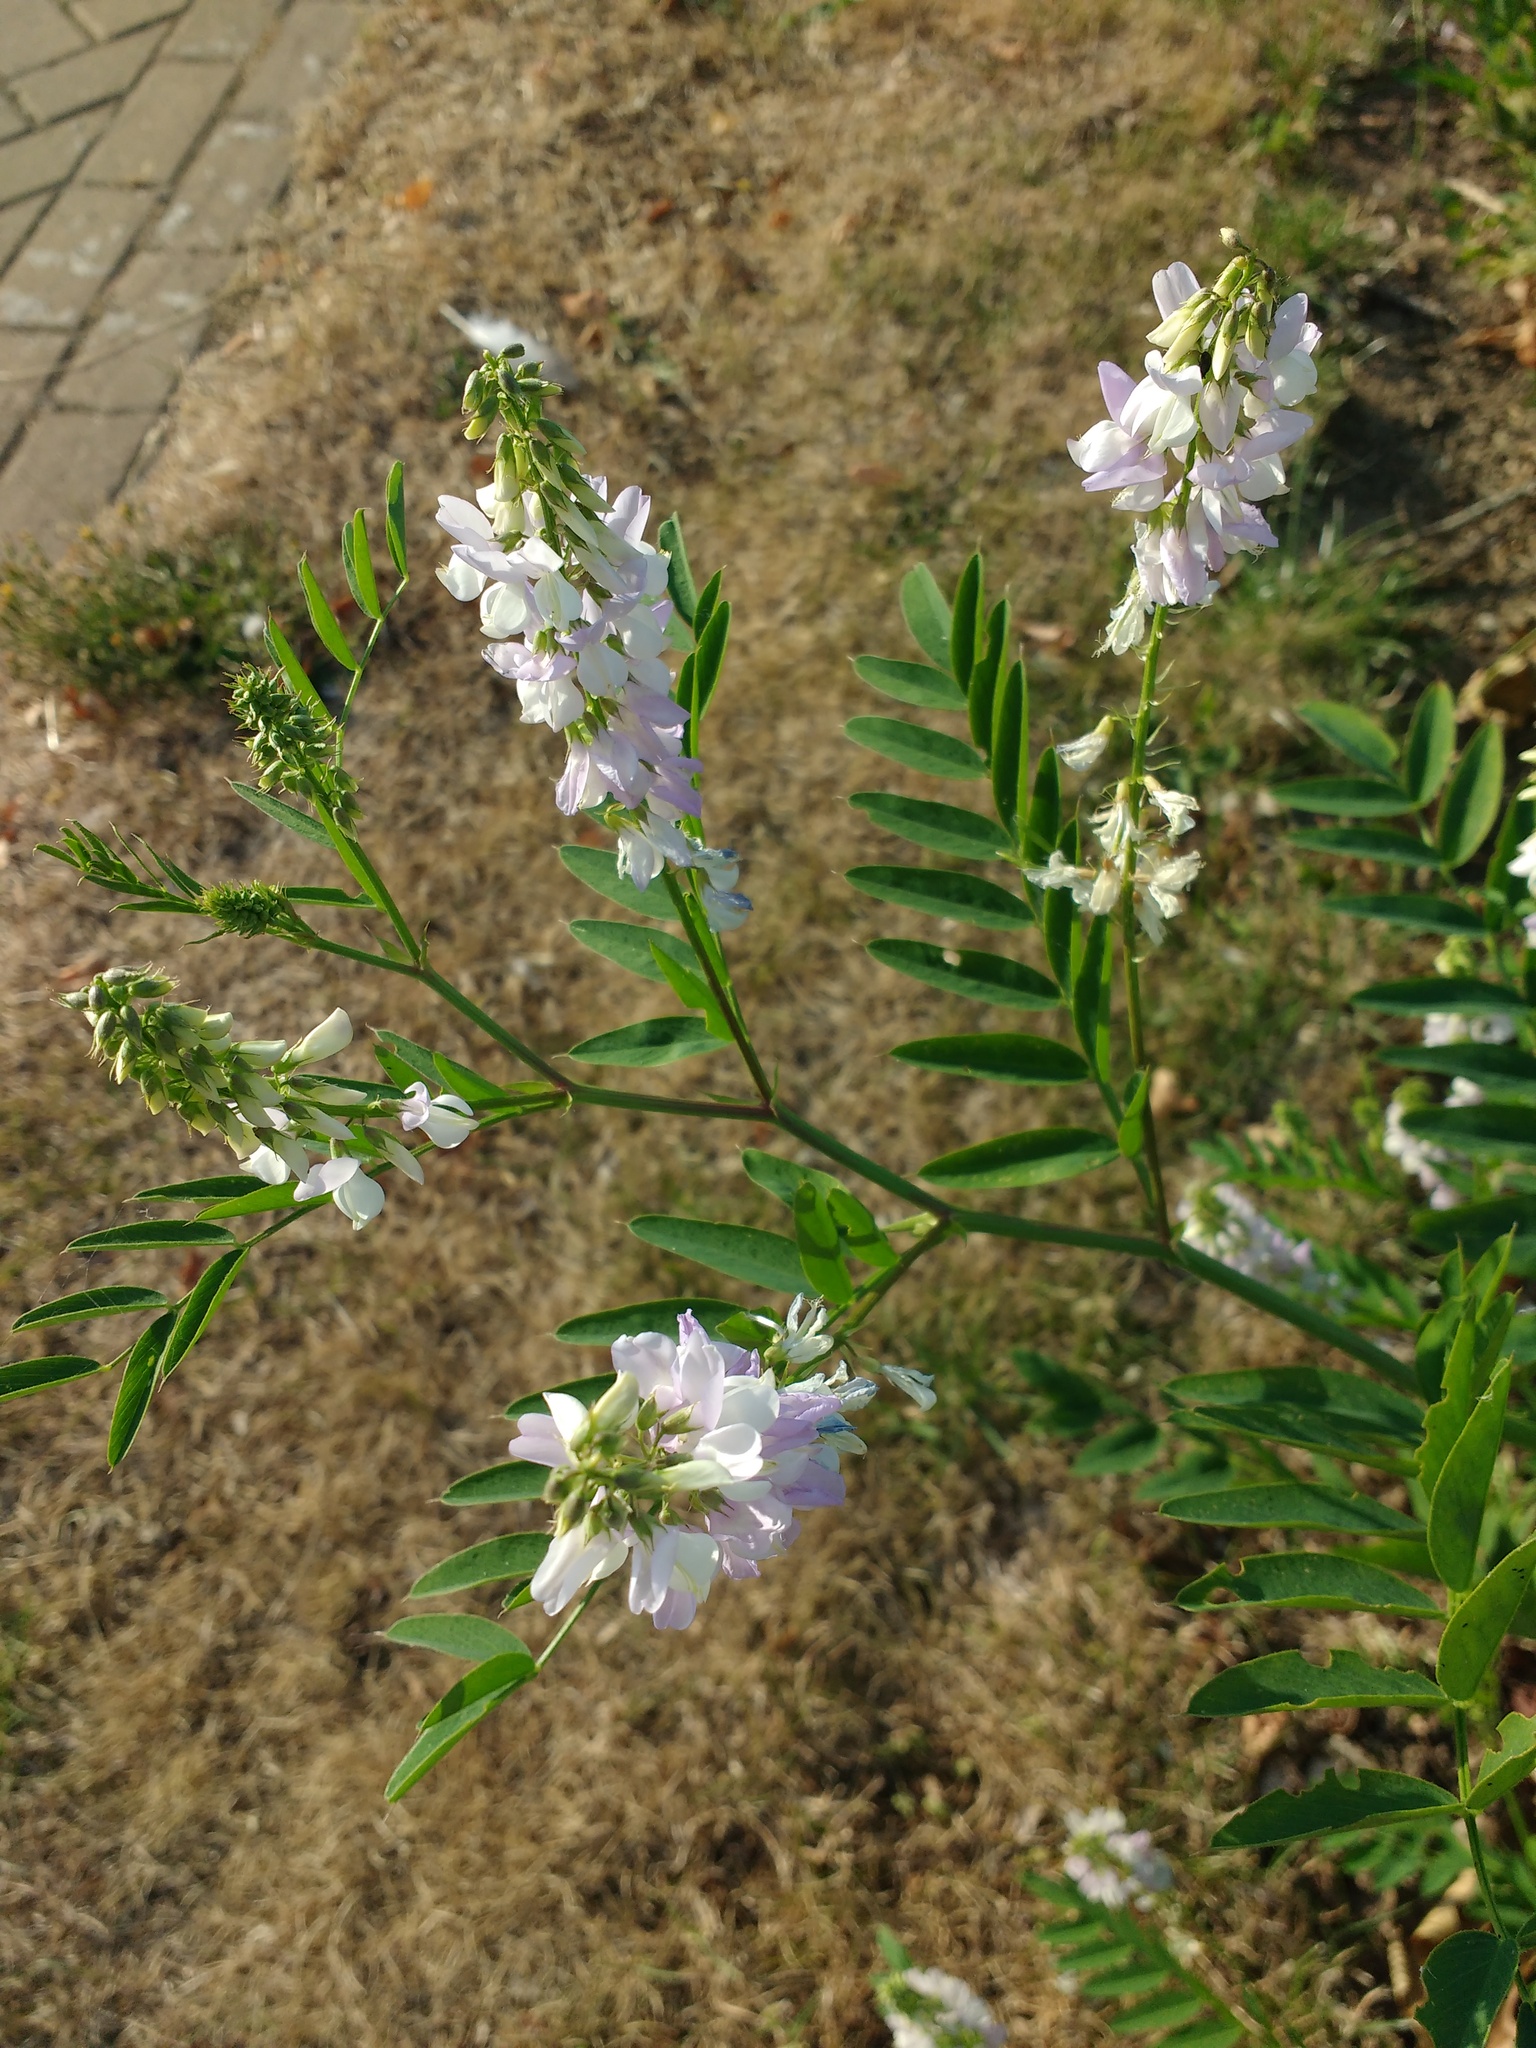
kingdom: Plantae
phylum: Tracheophyta
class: Magnoliopsida
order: Fabales
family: Fabaceae
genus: Galega
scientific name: Galega officinalis
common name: Goat's-rue
